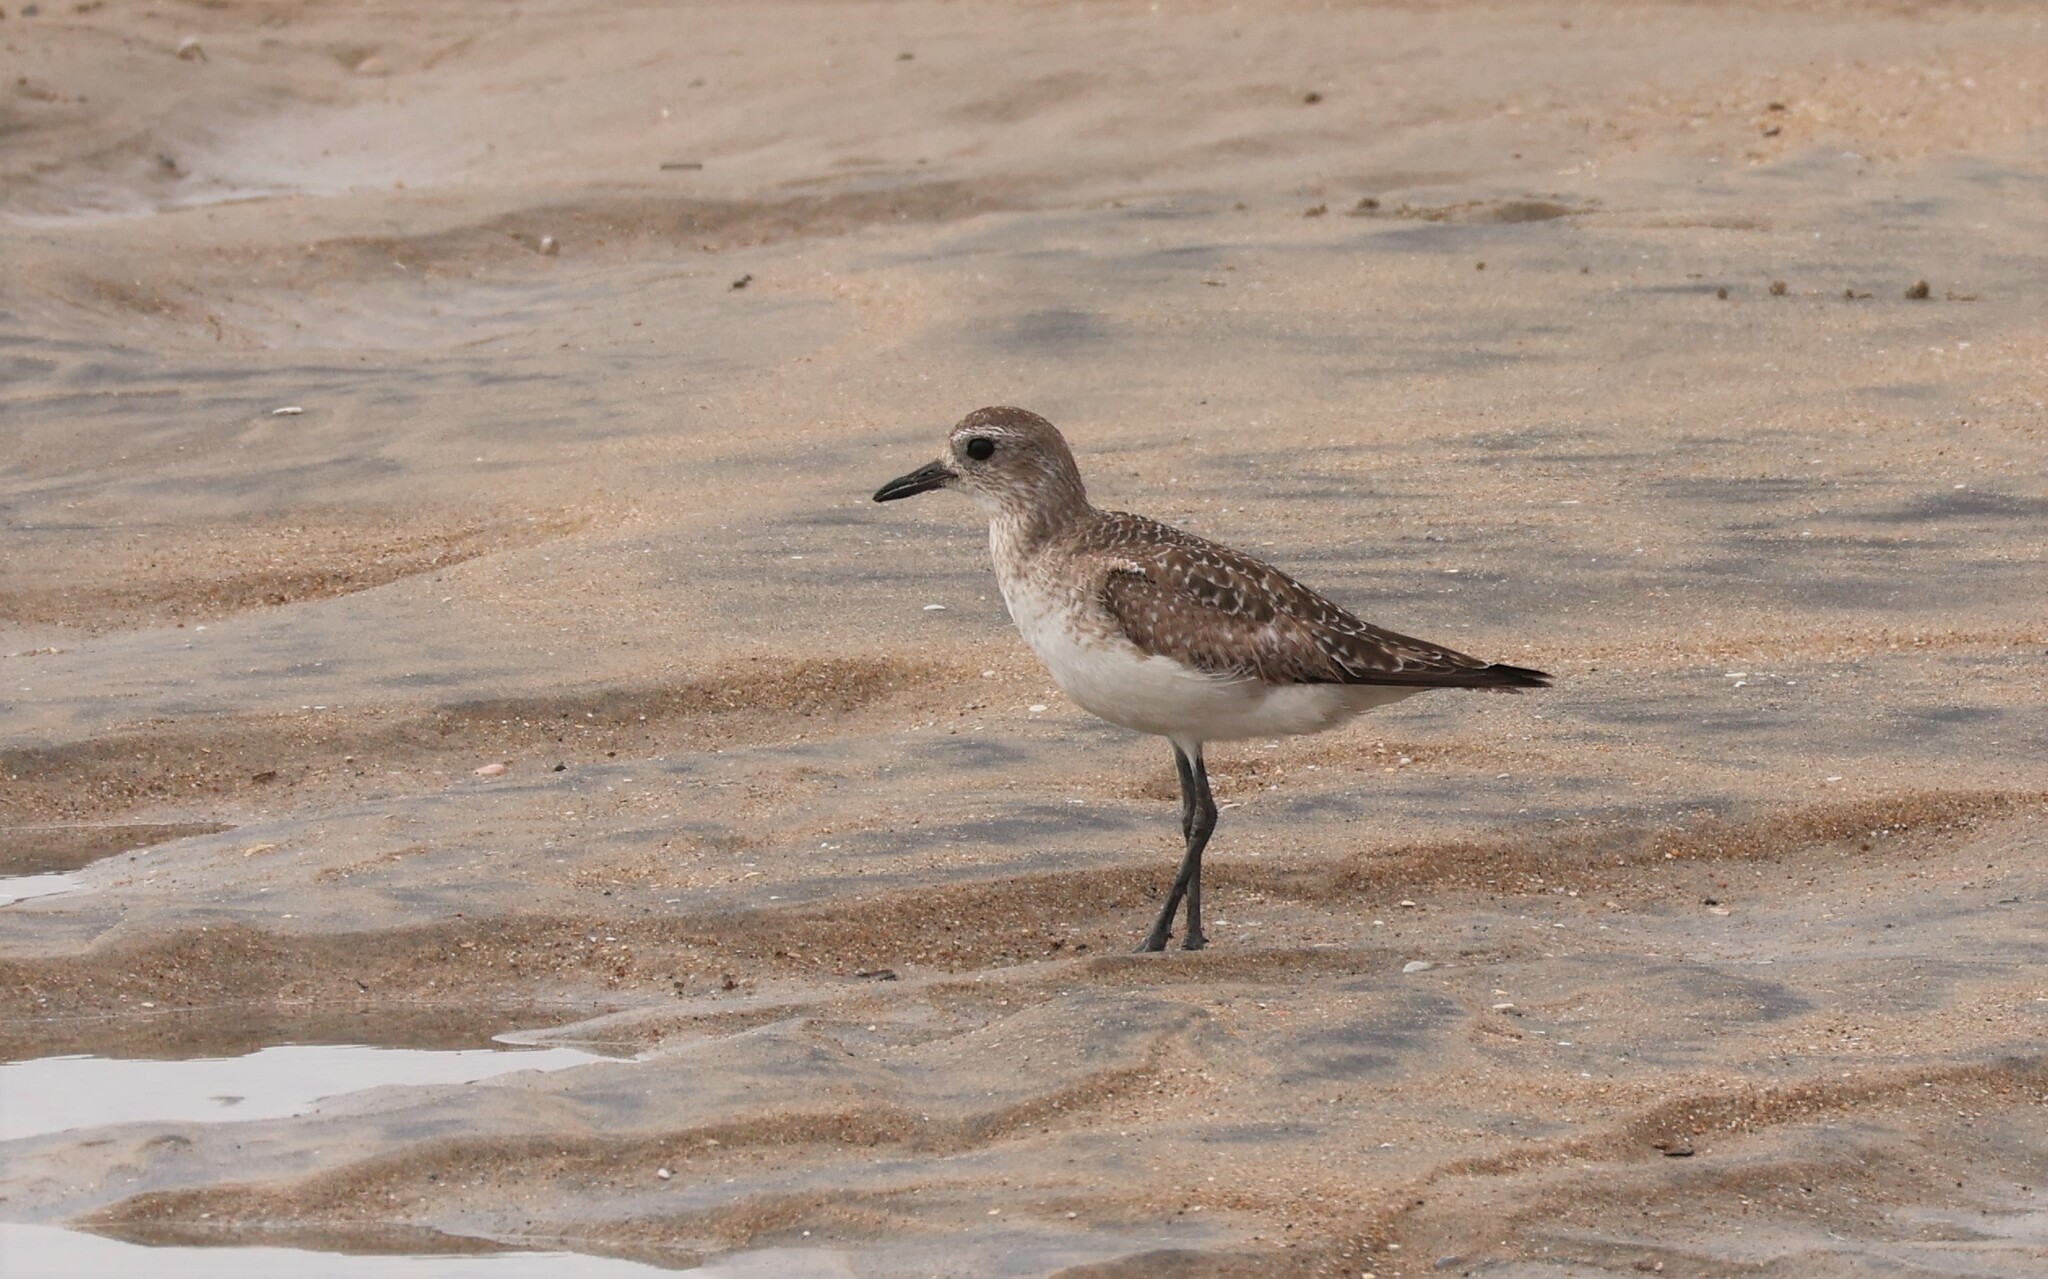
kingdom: Animalia
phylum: Chordata
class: Aves
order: Charadriiformes
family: Charadriidae
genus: Pluvialis
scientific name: Pluvialis squatarola
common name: Grey plover
